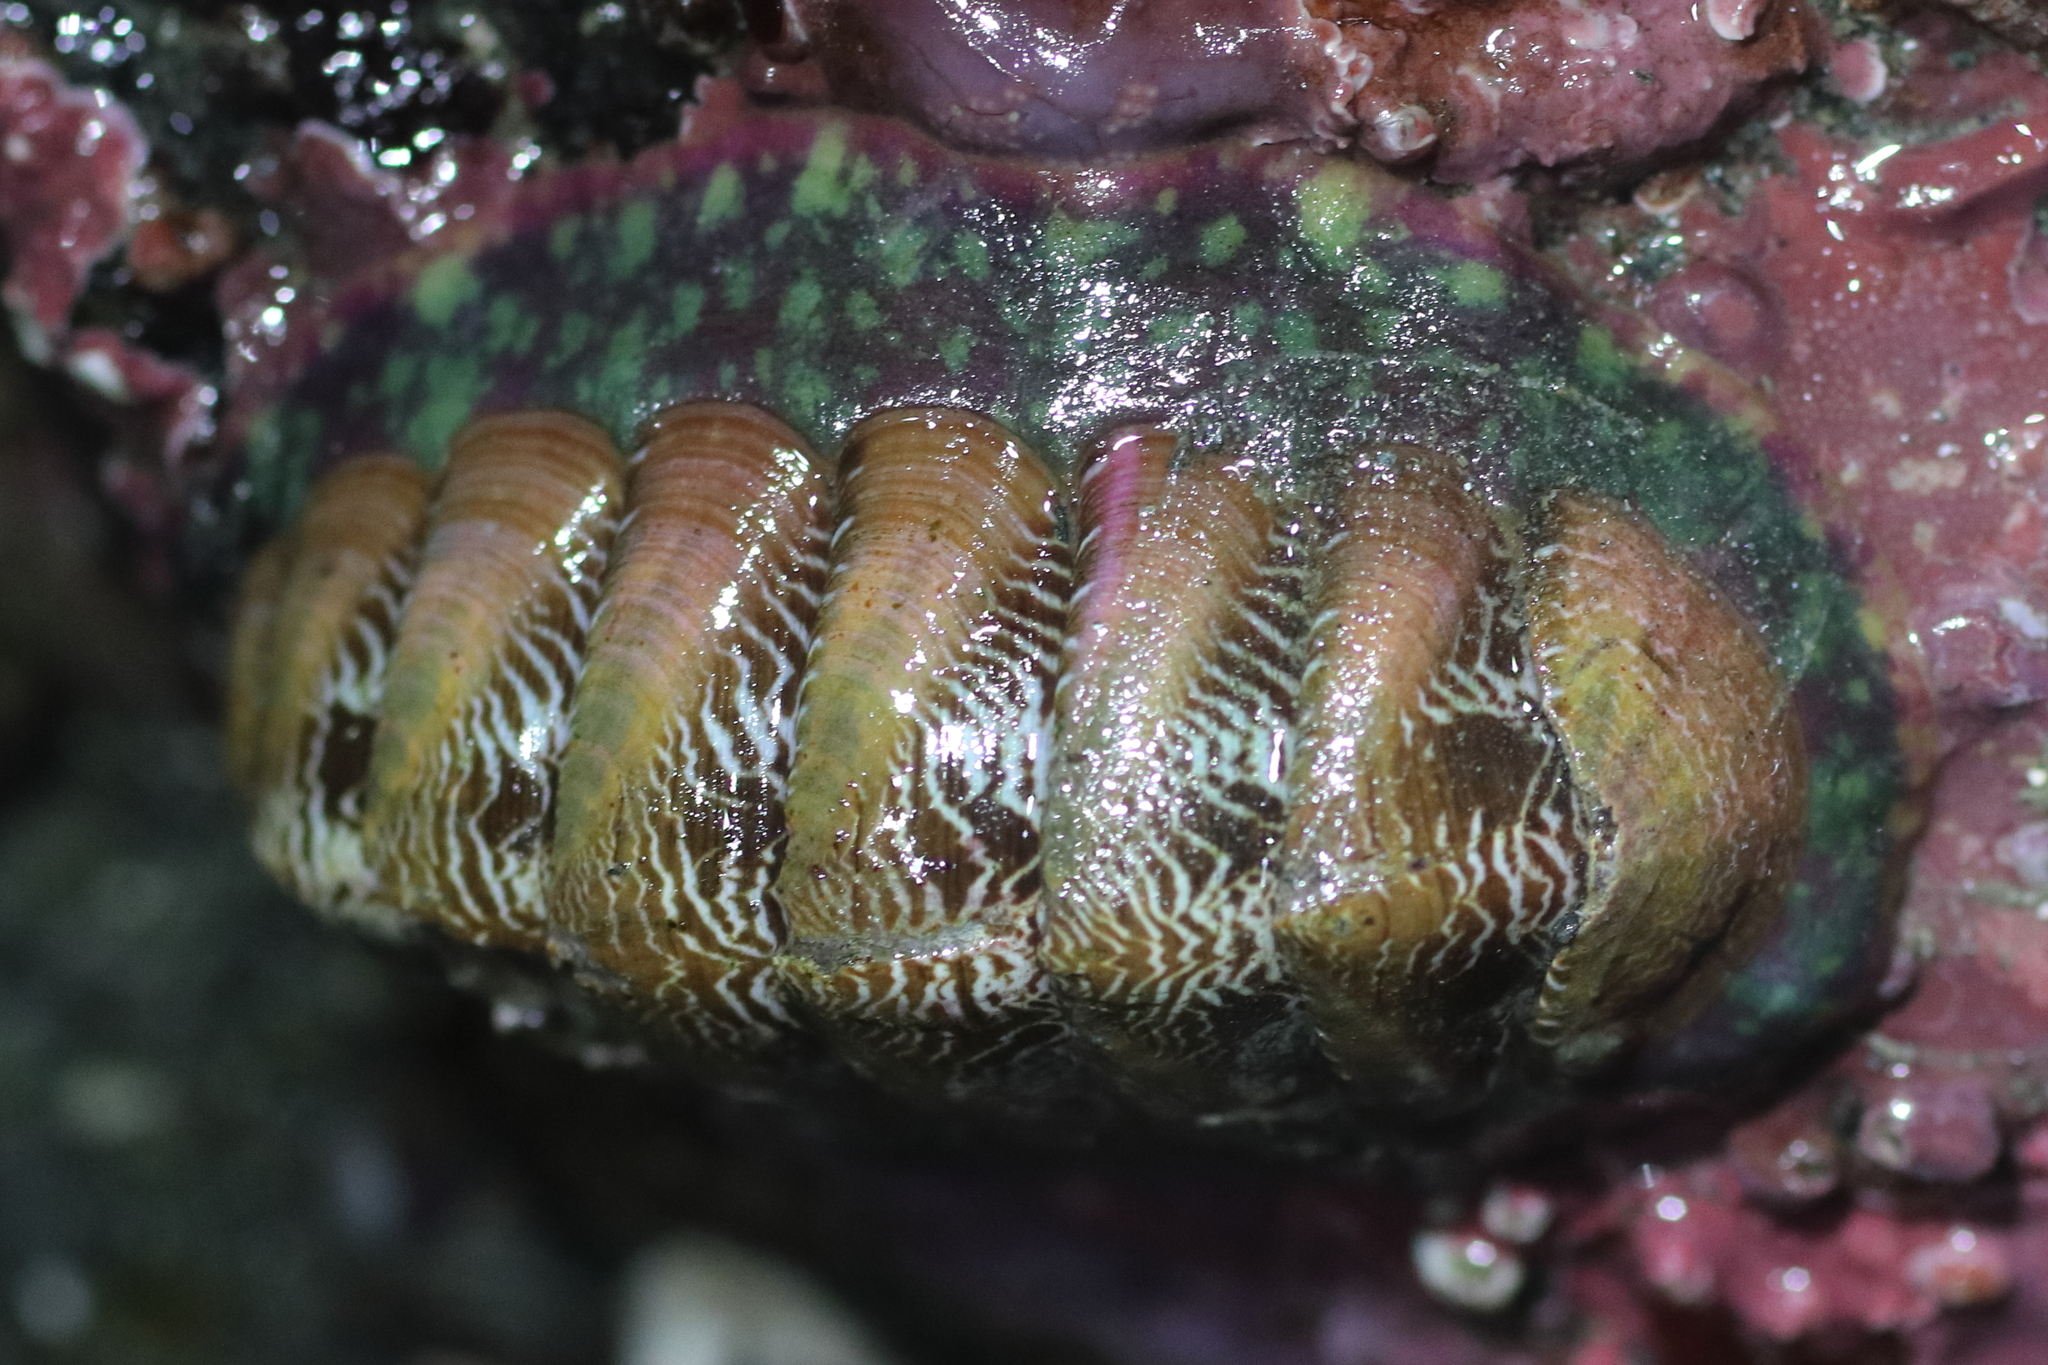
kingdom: Animalia
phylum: Mollusca
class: Polyplacophora
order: Chitonida
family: Tonicellidae
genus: Tonicella
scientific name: Tonicella insignis
